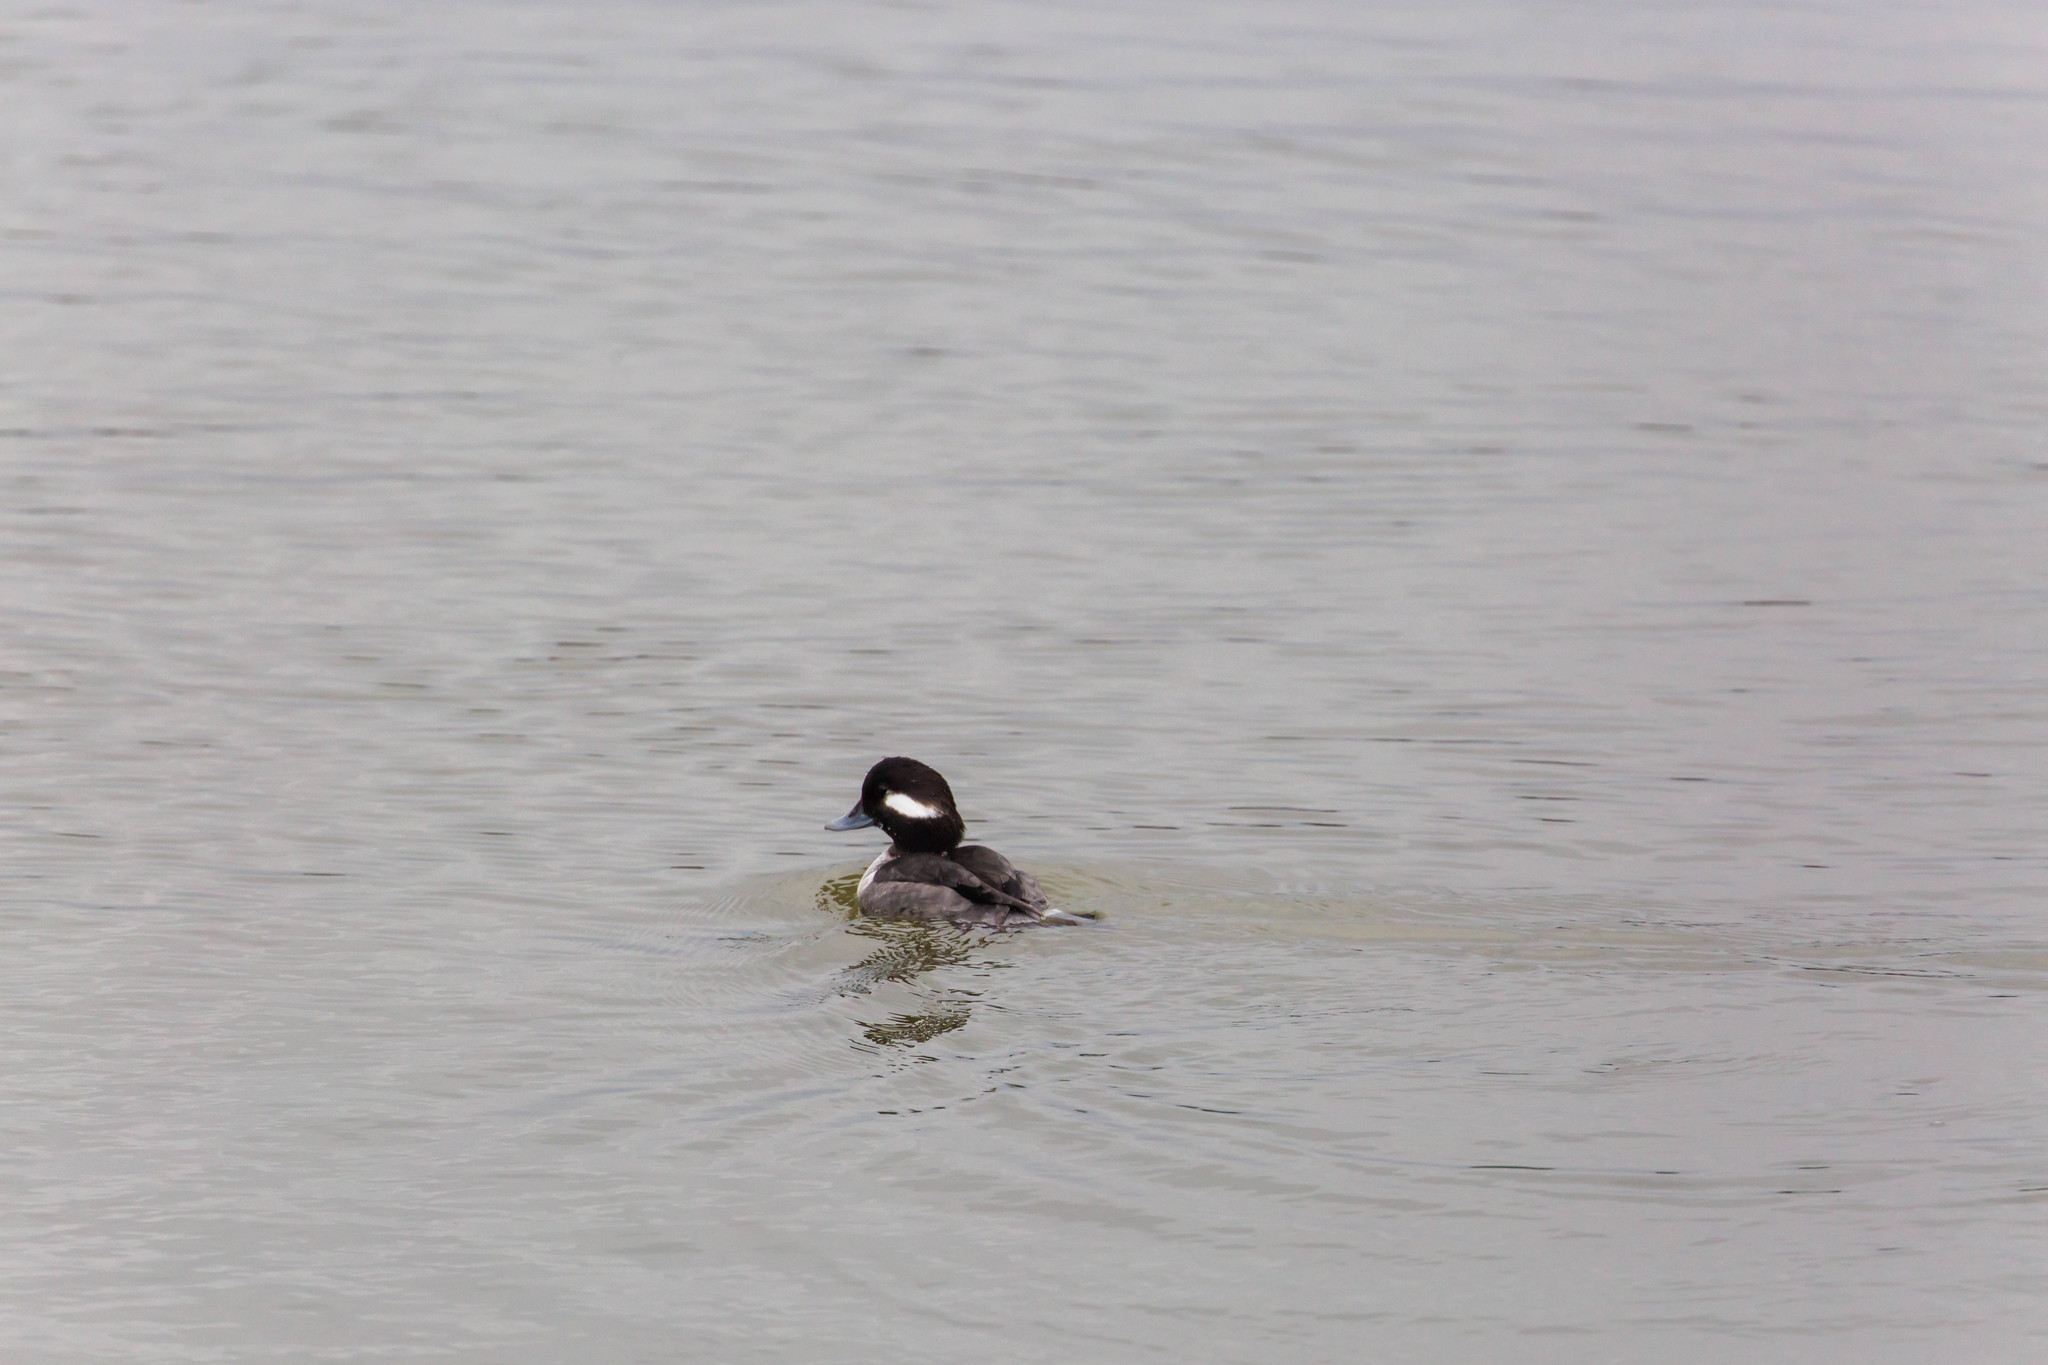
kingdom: Animalia
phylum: Chordata
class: Aves
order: Anseriformes
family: Anatidae
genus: Bucephala
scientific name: Bucephala albeola
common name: Bufflehead
